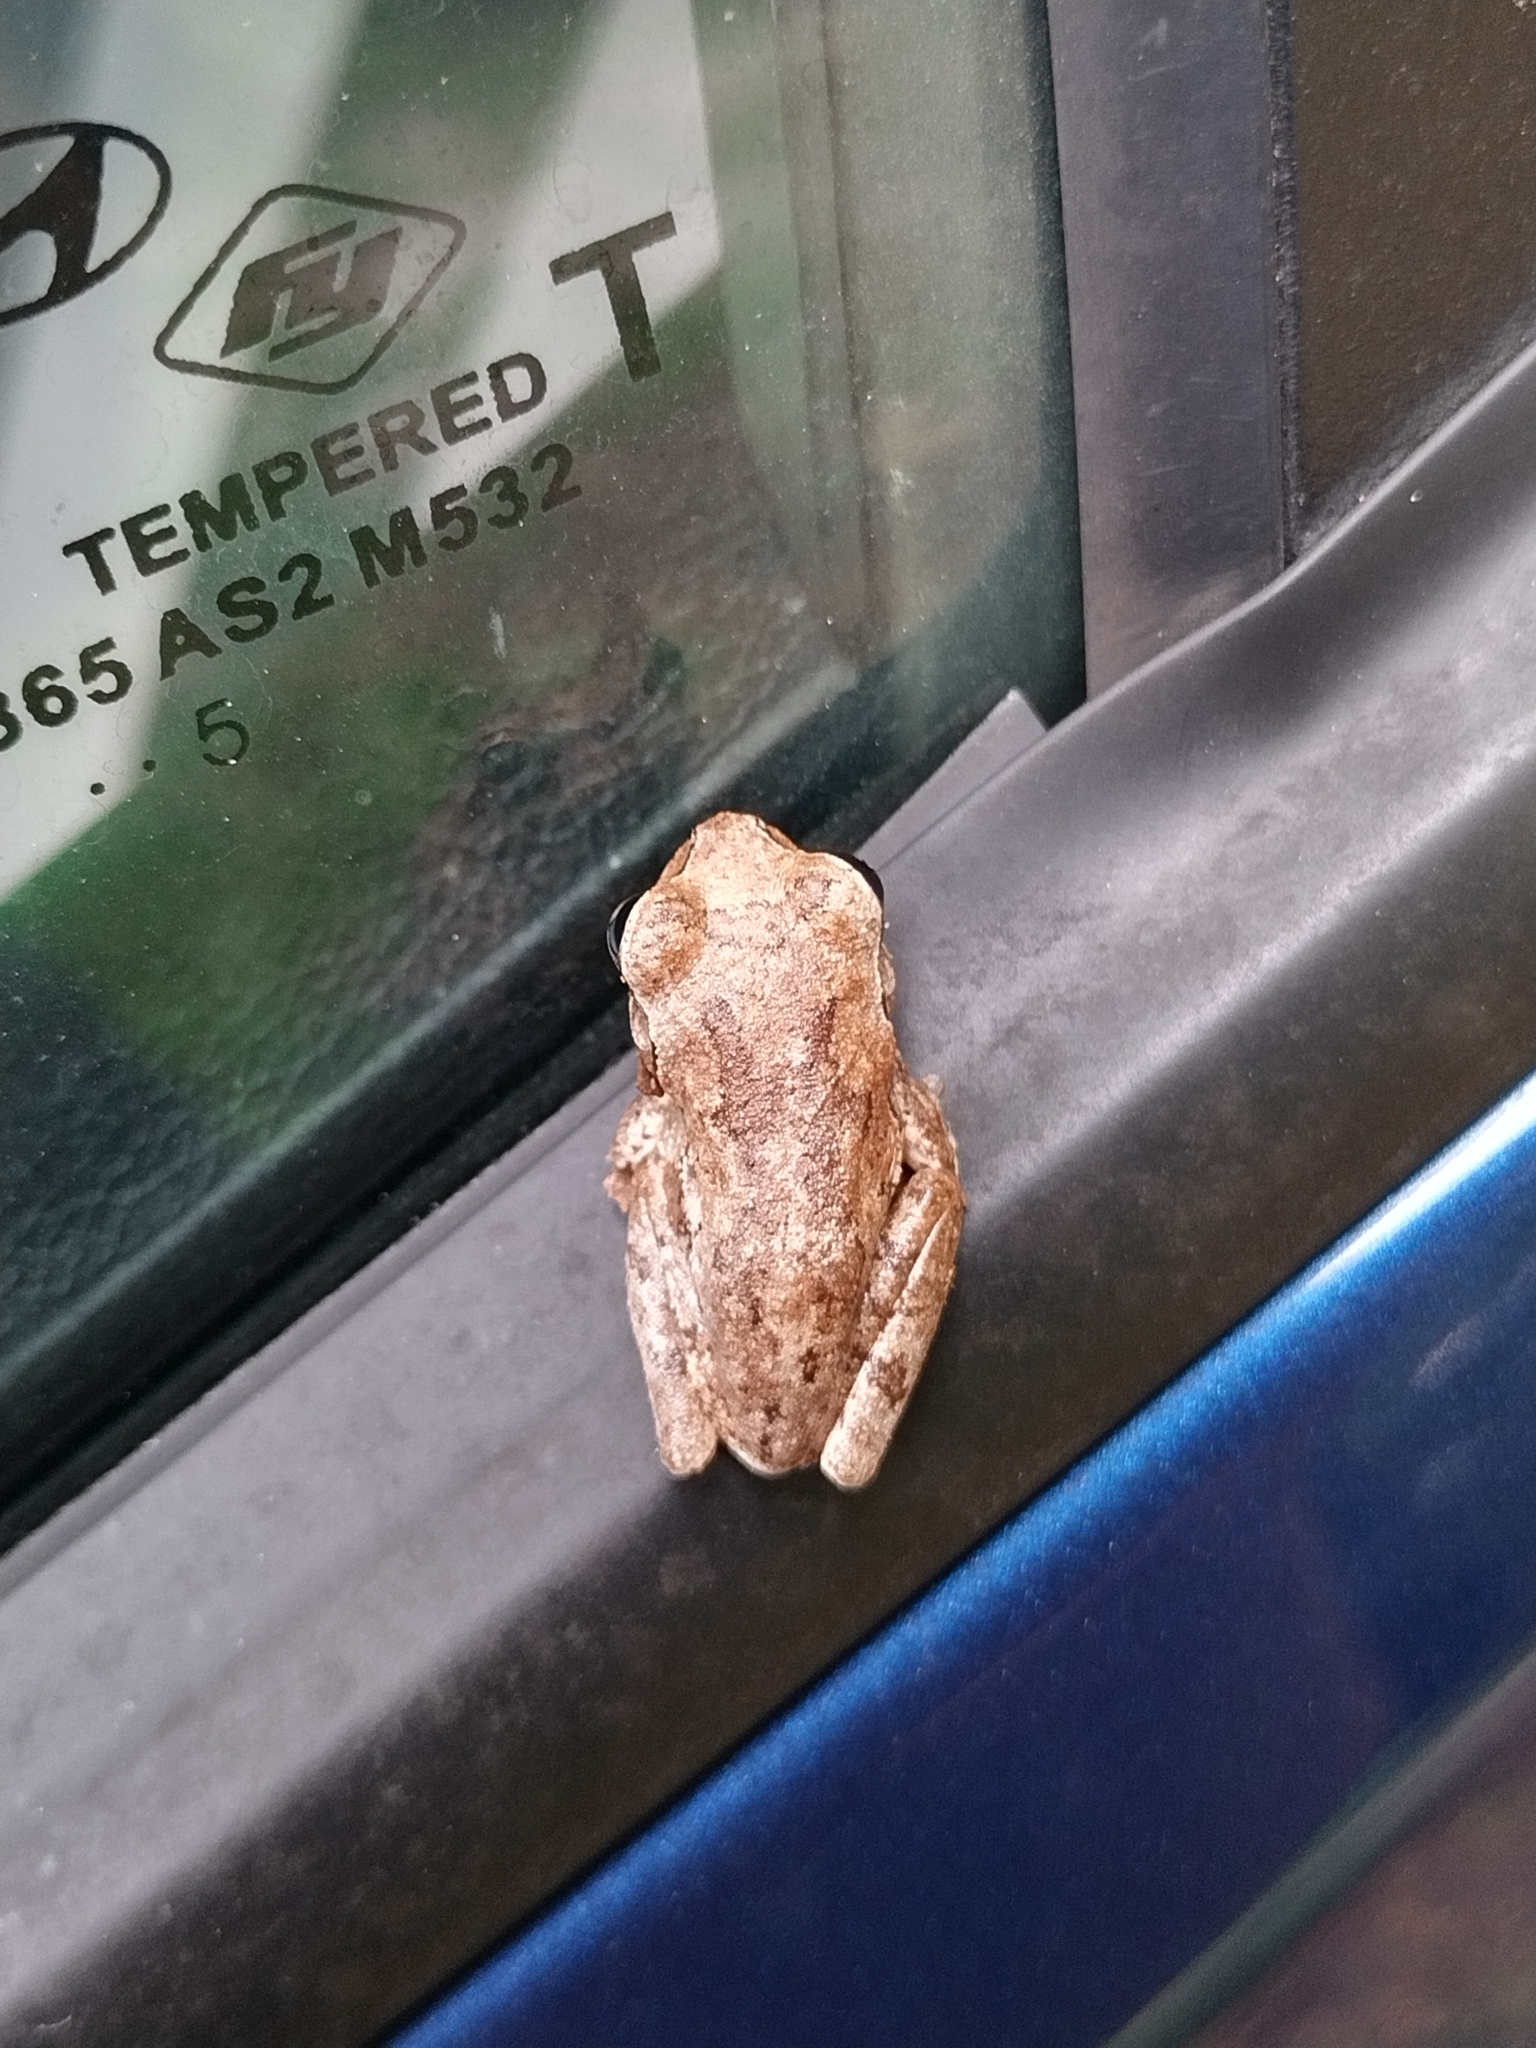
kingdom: Animalia
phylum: Chordata
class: Amphibia
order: Anura
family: Hylidae
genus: Hyla
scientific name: Hyla femoralis
